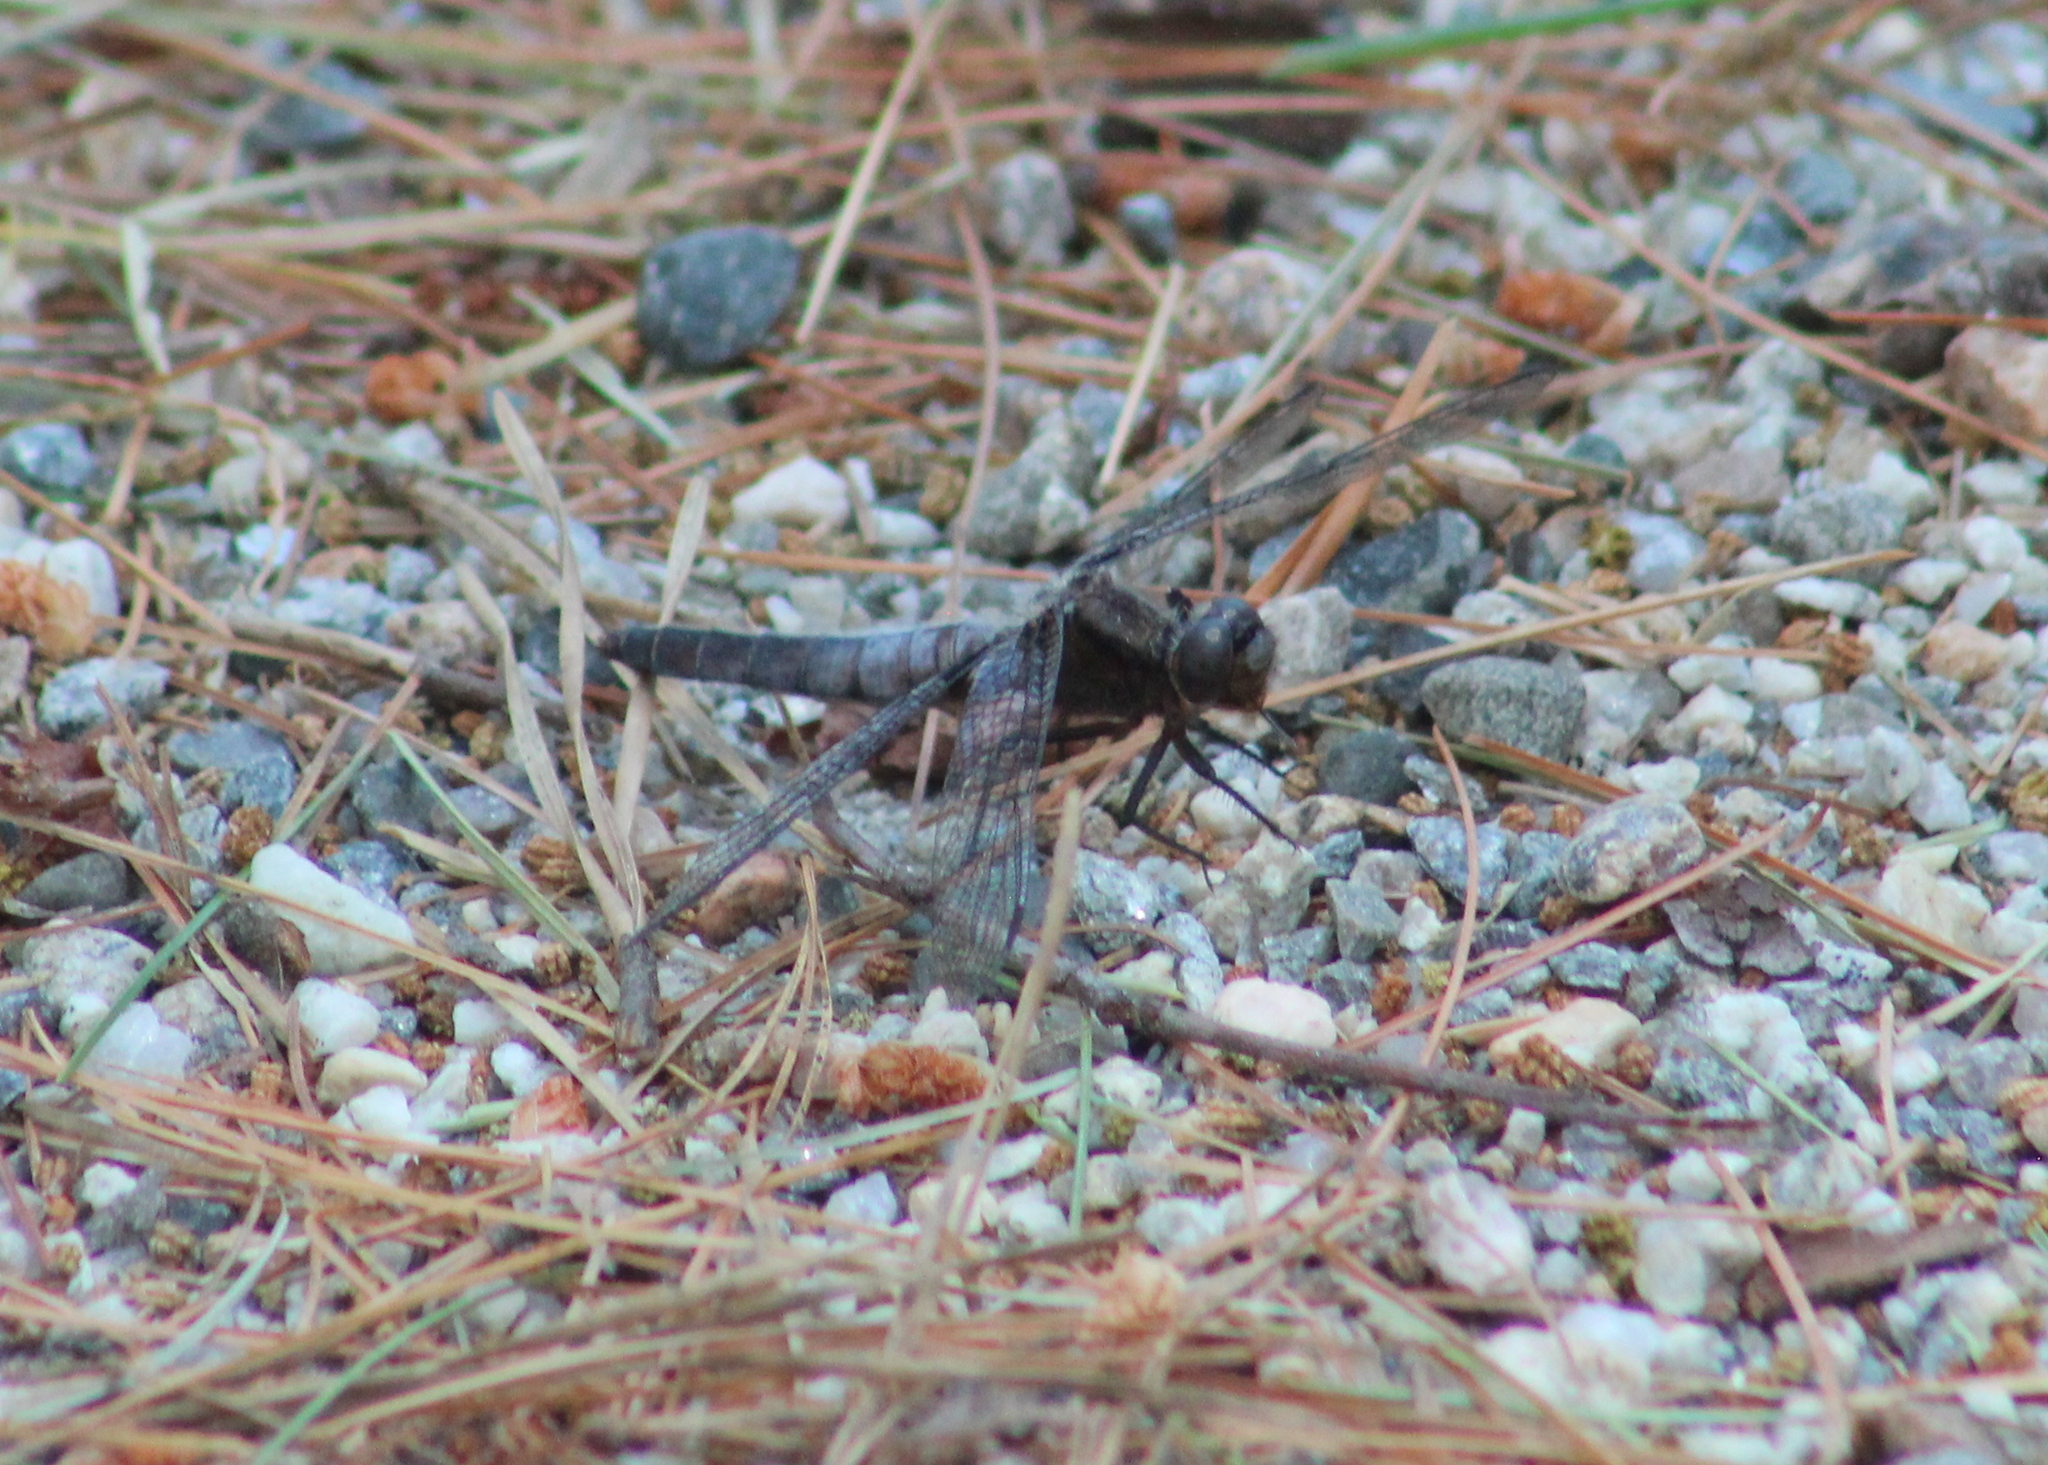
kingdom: Animalia
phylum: Arthropoda
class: Insecta
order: Odonata
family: Libellulidae
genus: Ladona
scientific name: Ladona julia
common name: Chalk-fronted corporal
